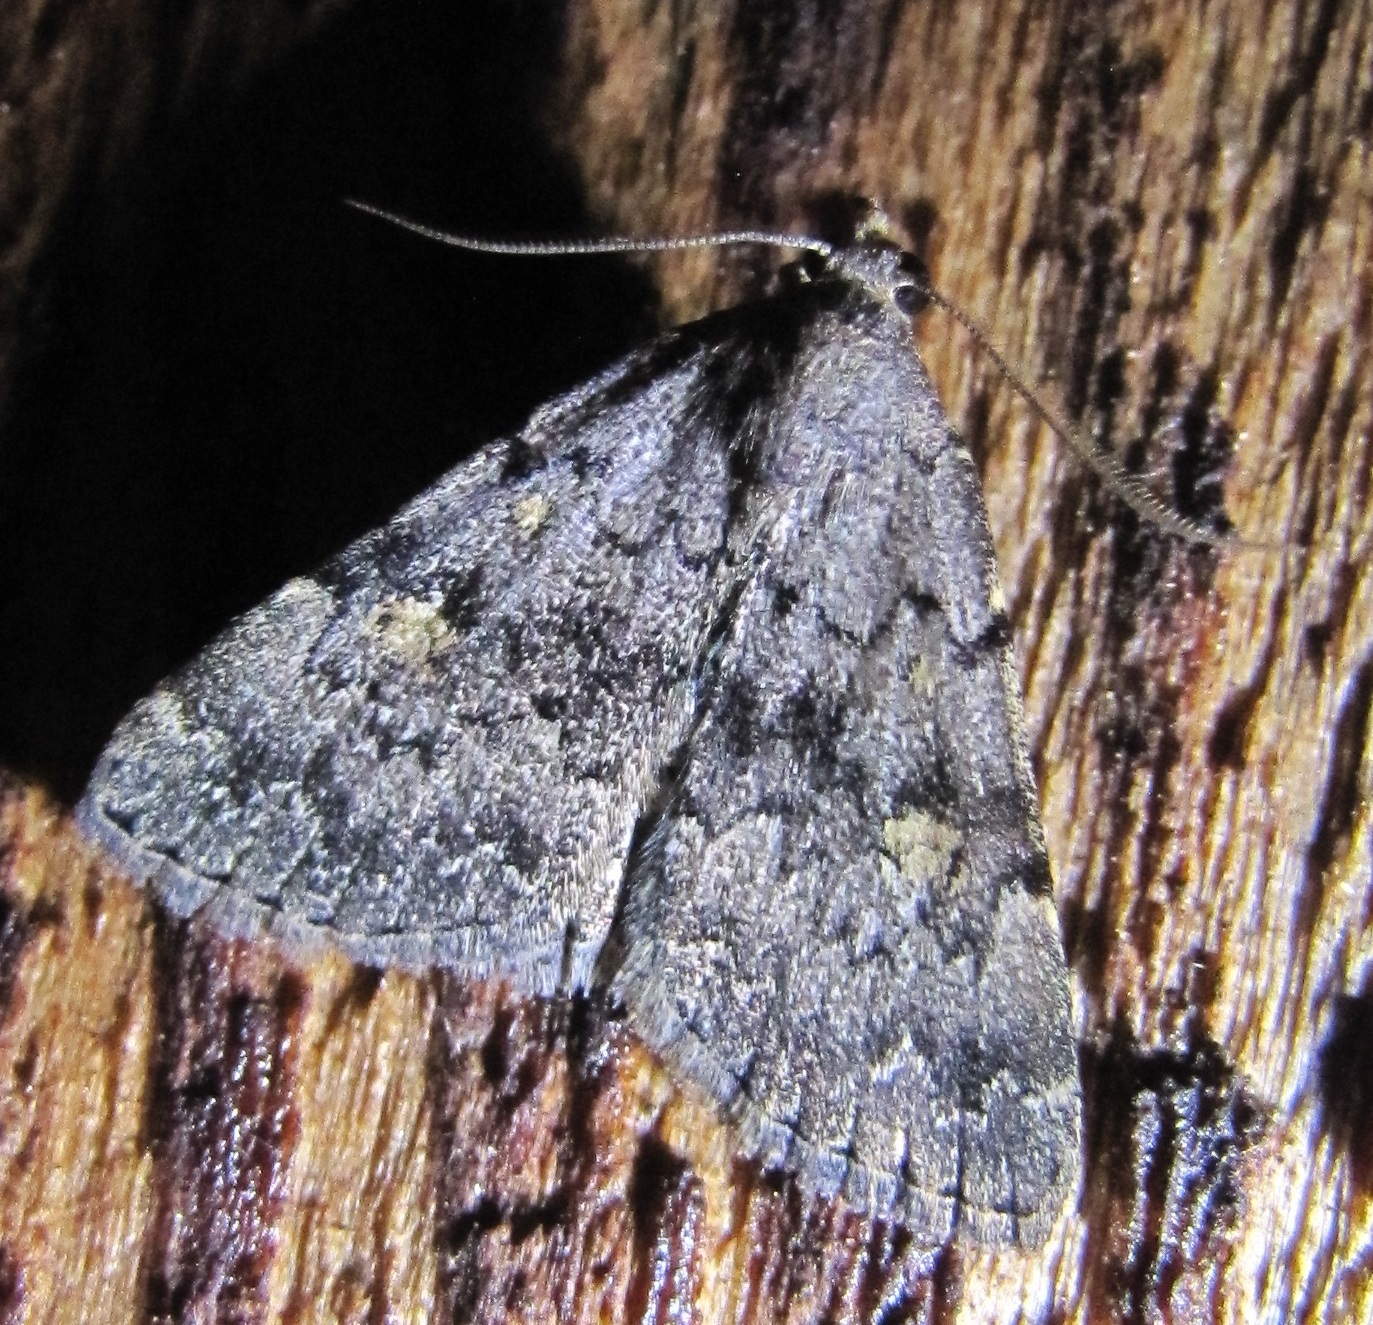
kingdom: Animalia
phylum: Arthropoda
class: Insecta
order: Lepidoptera
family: Erebidae
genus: Idia
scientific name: Idia aemula
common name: Common idia moth
